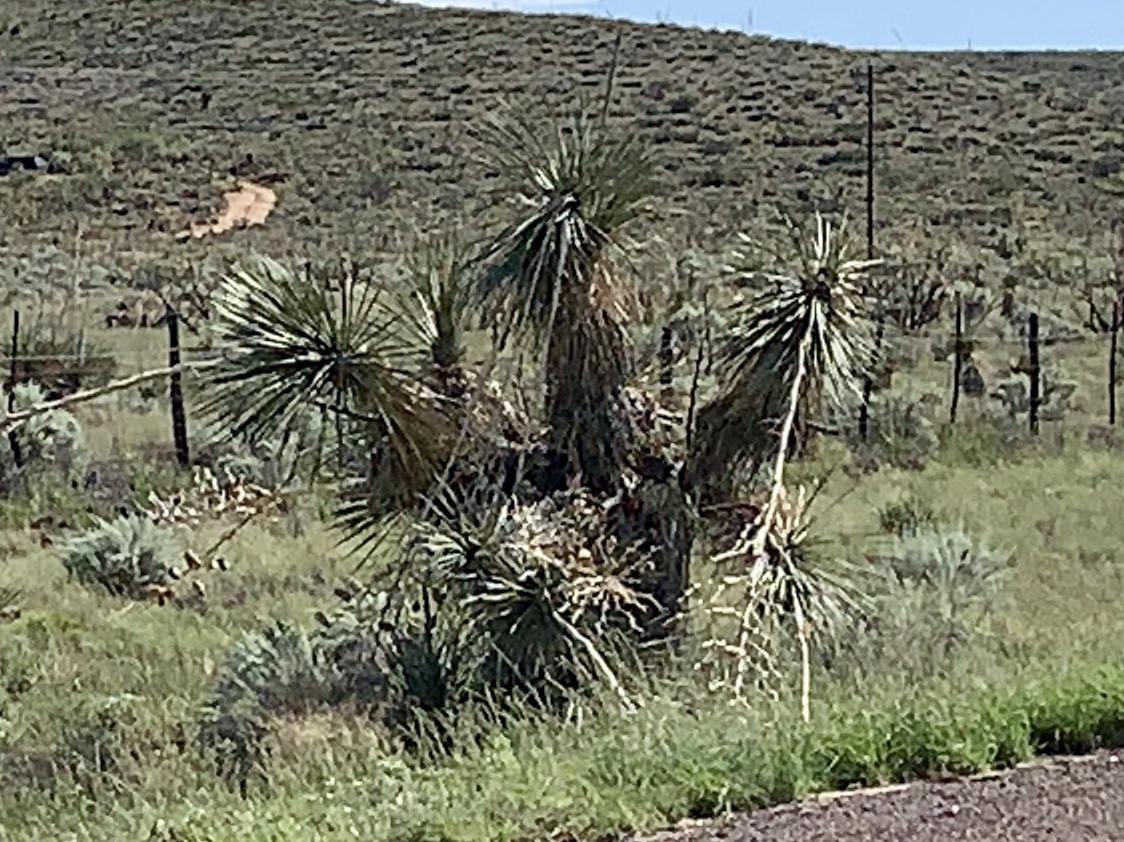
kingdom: Plantae
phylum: Tracheophyta
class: Liliopsida
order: Asparagales
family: Asparagaceae
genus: Yucca
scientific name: Yucca elata
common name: Palmella
